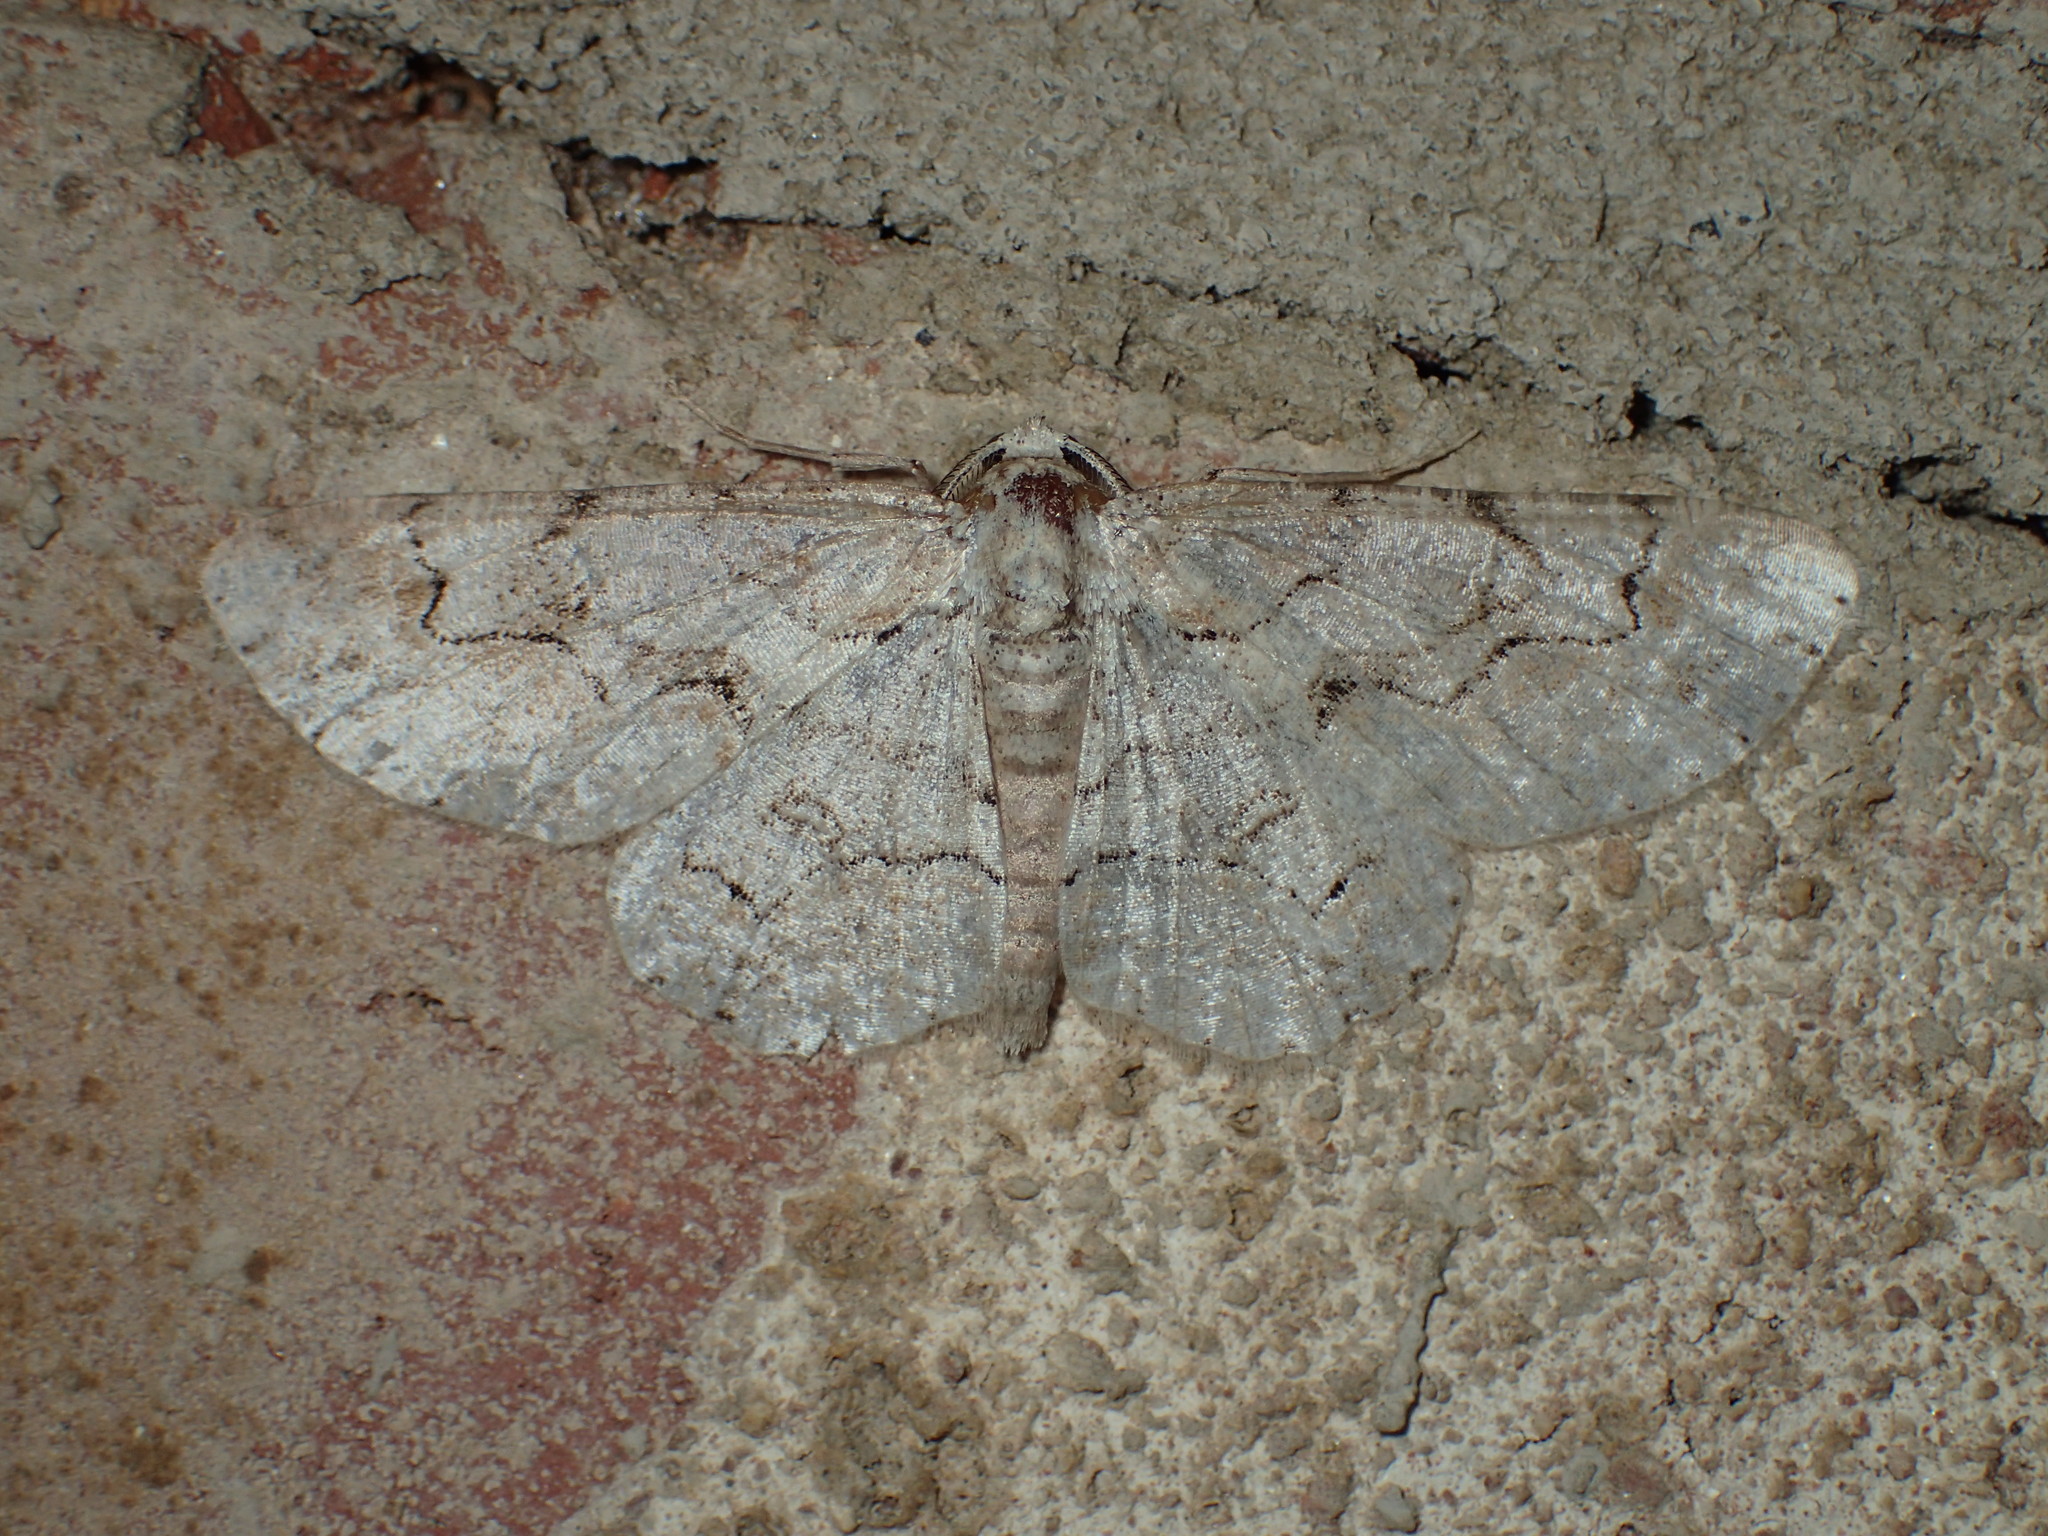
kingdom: Animalia
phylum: Arthropoda
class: Insecta
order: Lepidoptera
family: Geometridae
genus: Iridopsis
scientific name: Iridopsis defectaria
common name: Brown-shaded gray
